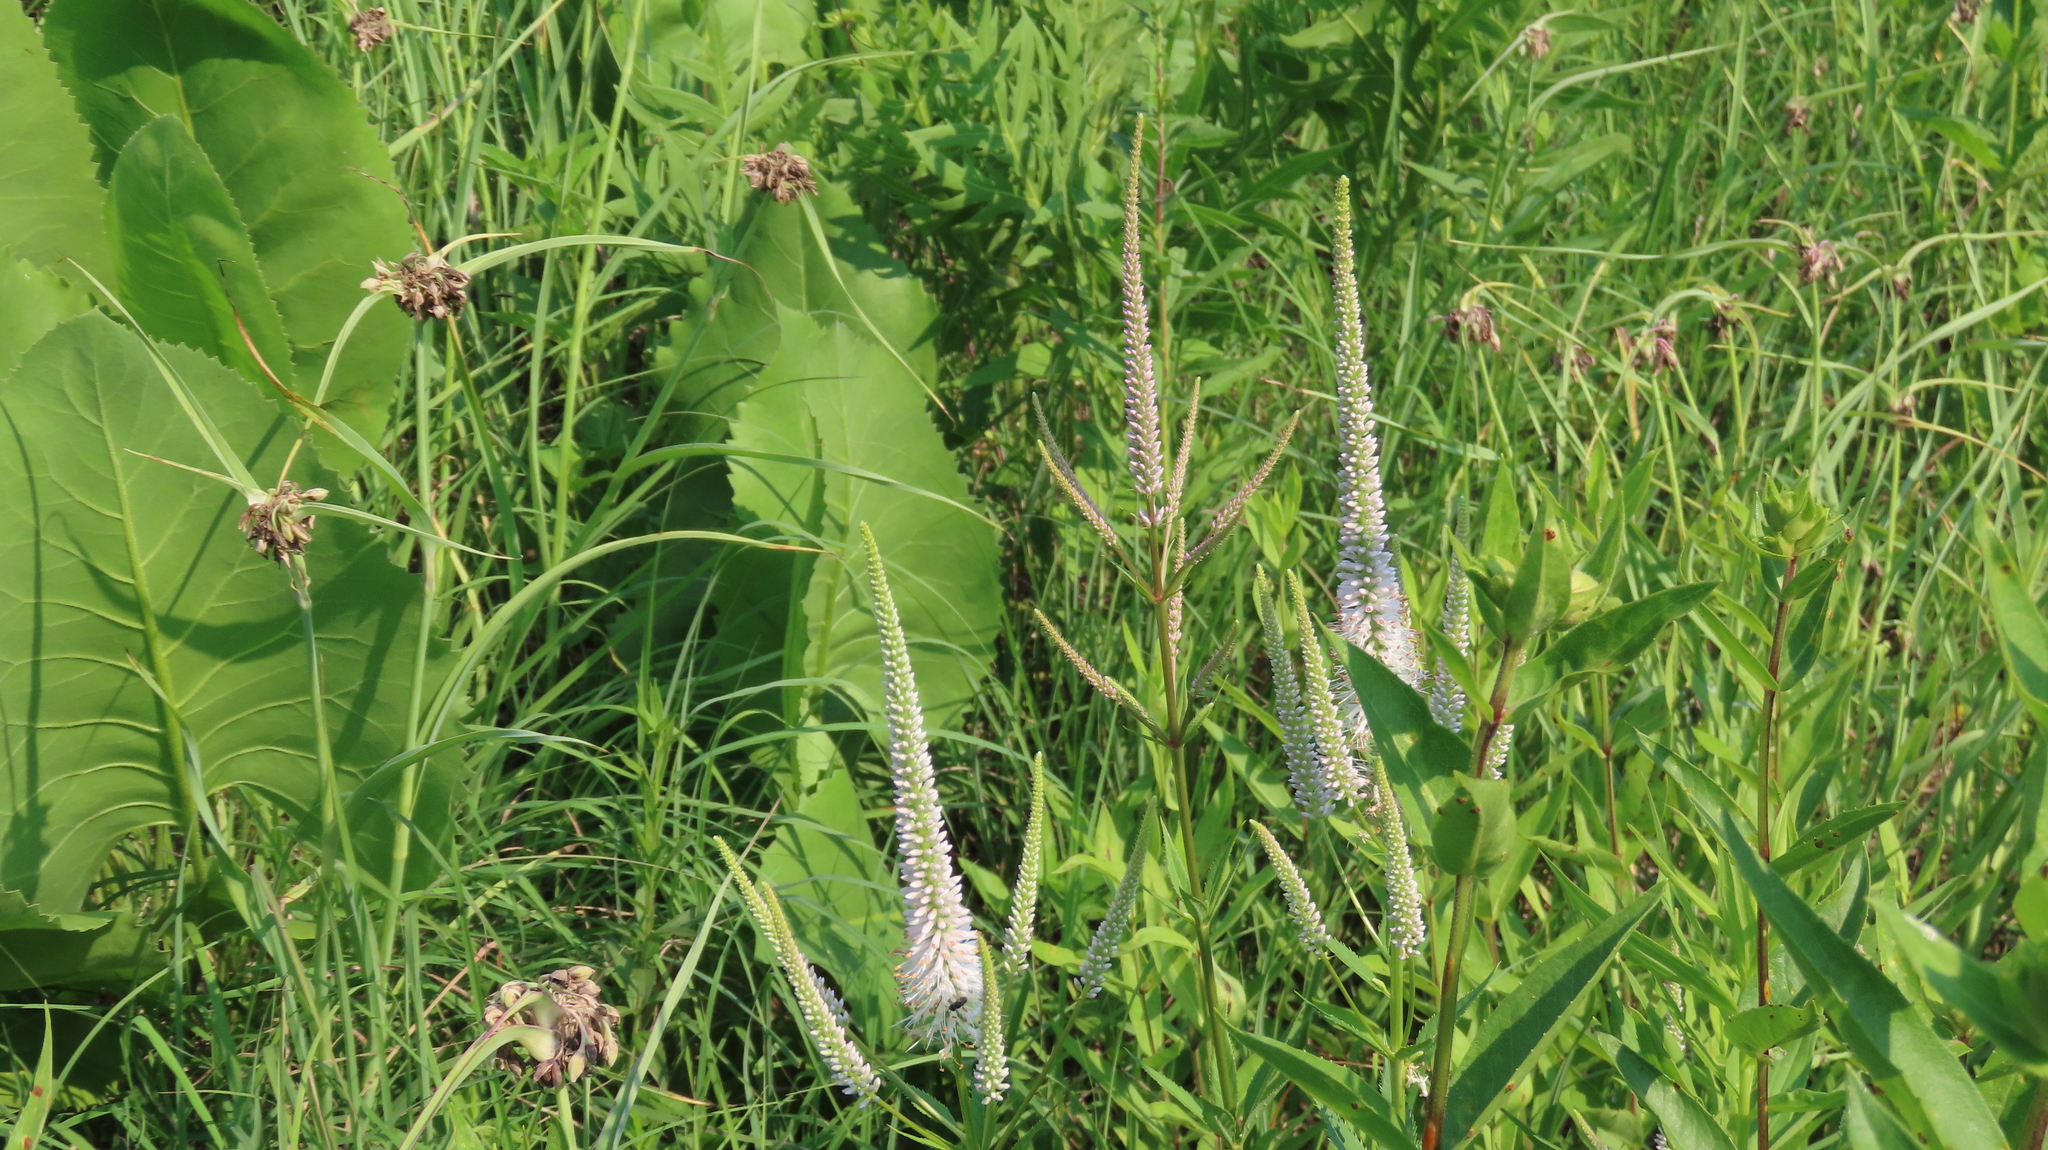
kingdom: Plantae
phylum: Tracheophyta
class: Magnoliopsida
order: Lamiales
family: Plantaginaceae
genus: Veronicastrum
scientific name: Veronicastrum virginicum
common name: Blackroot
